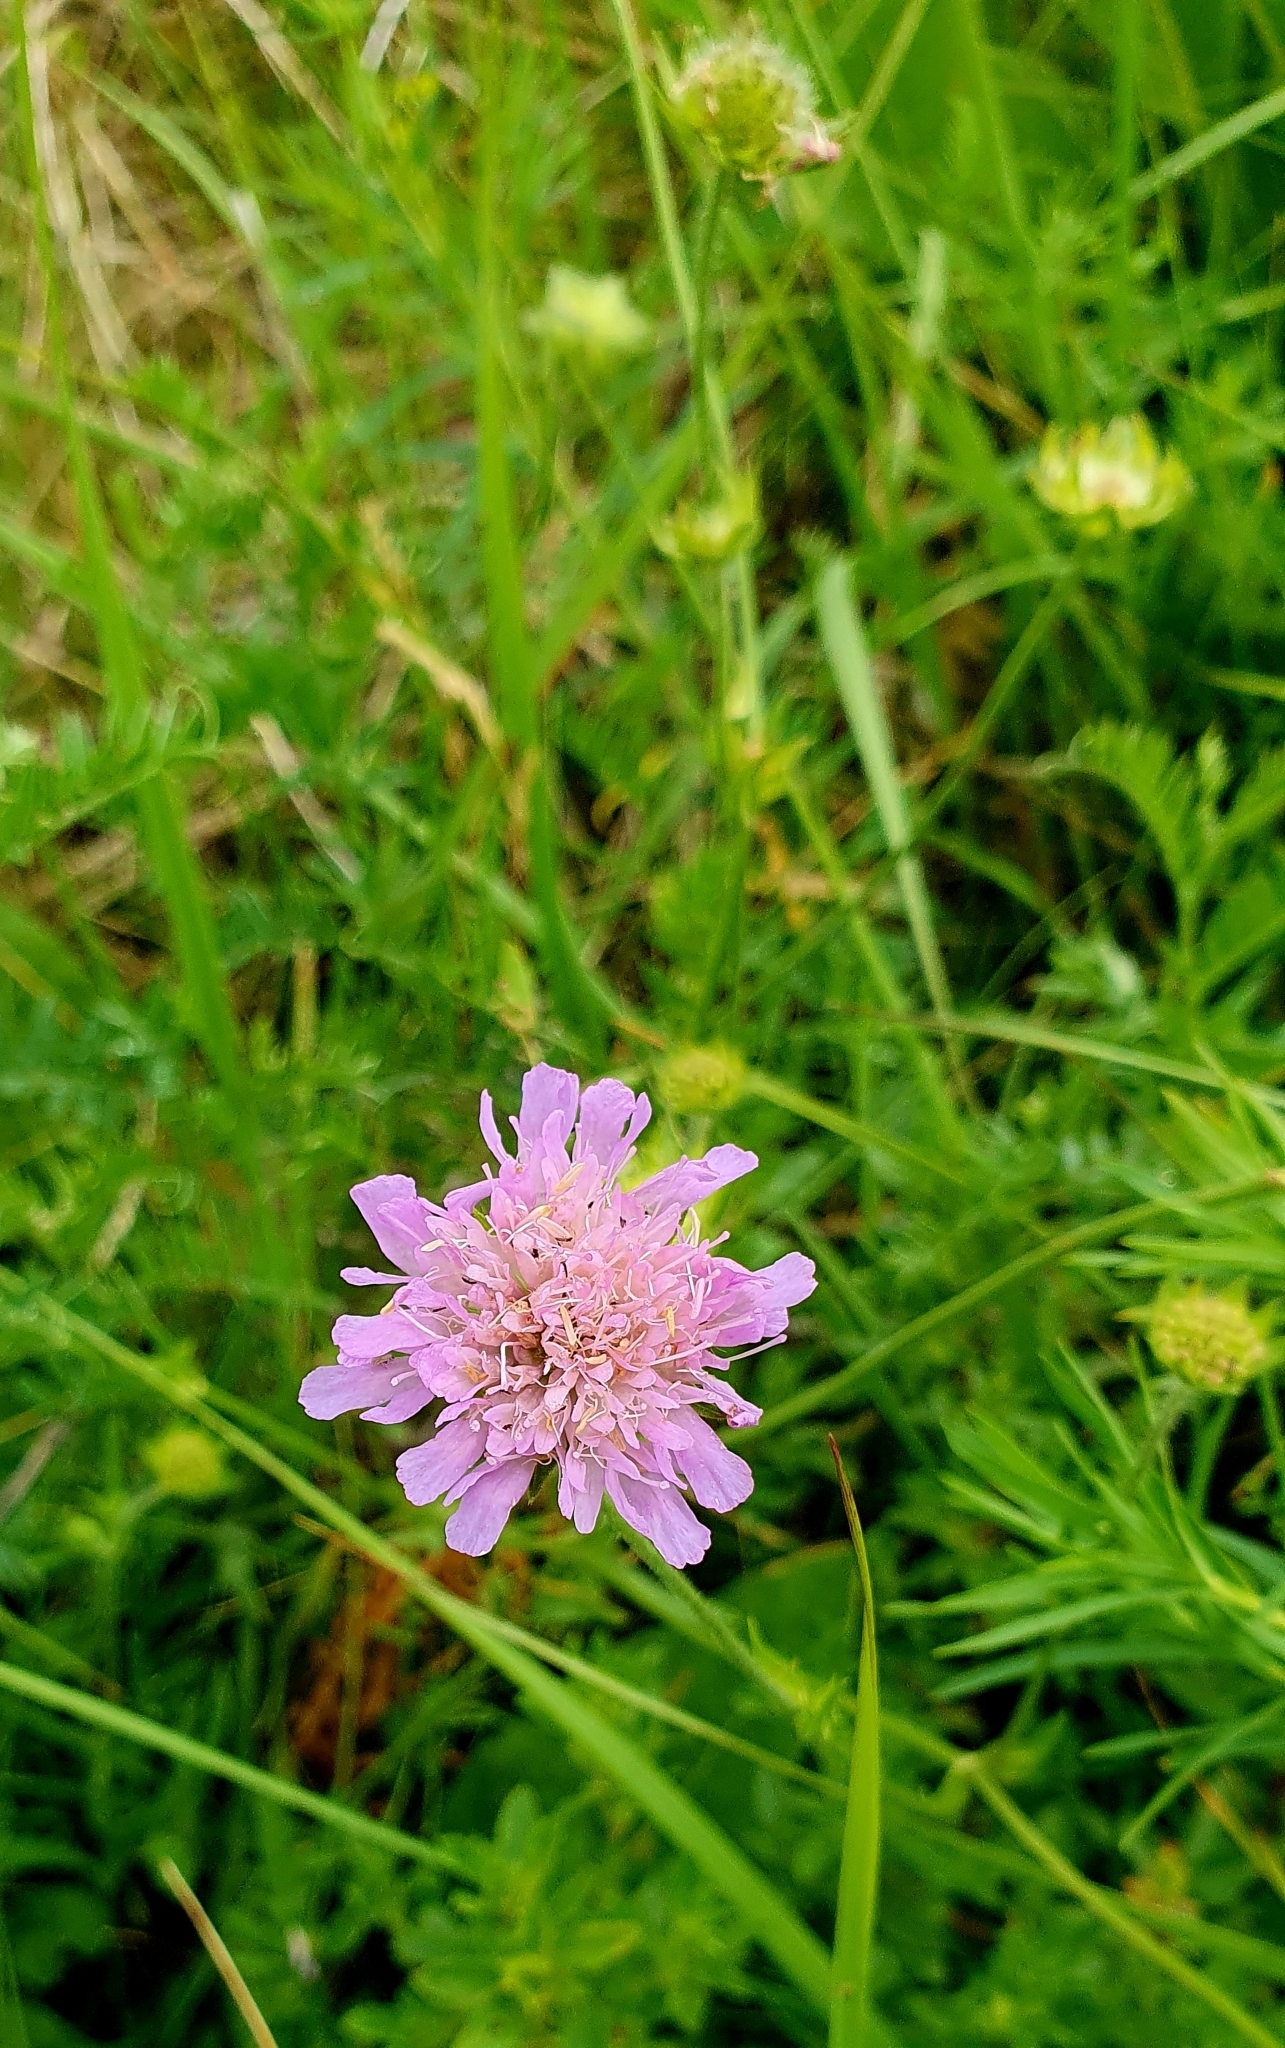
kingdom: Plantae
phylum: Tracheophyta
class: Magnoliopsida
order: Dipsacales
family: Caprifoliaceae
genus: Knautia
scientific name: Knautia arvensis
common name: Field scabiosa
